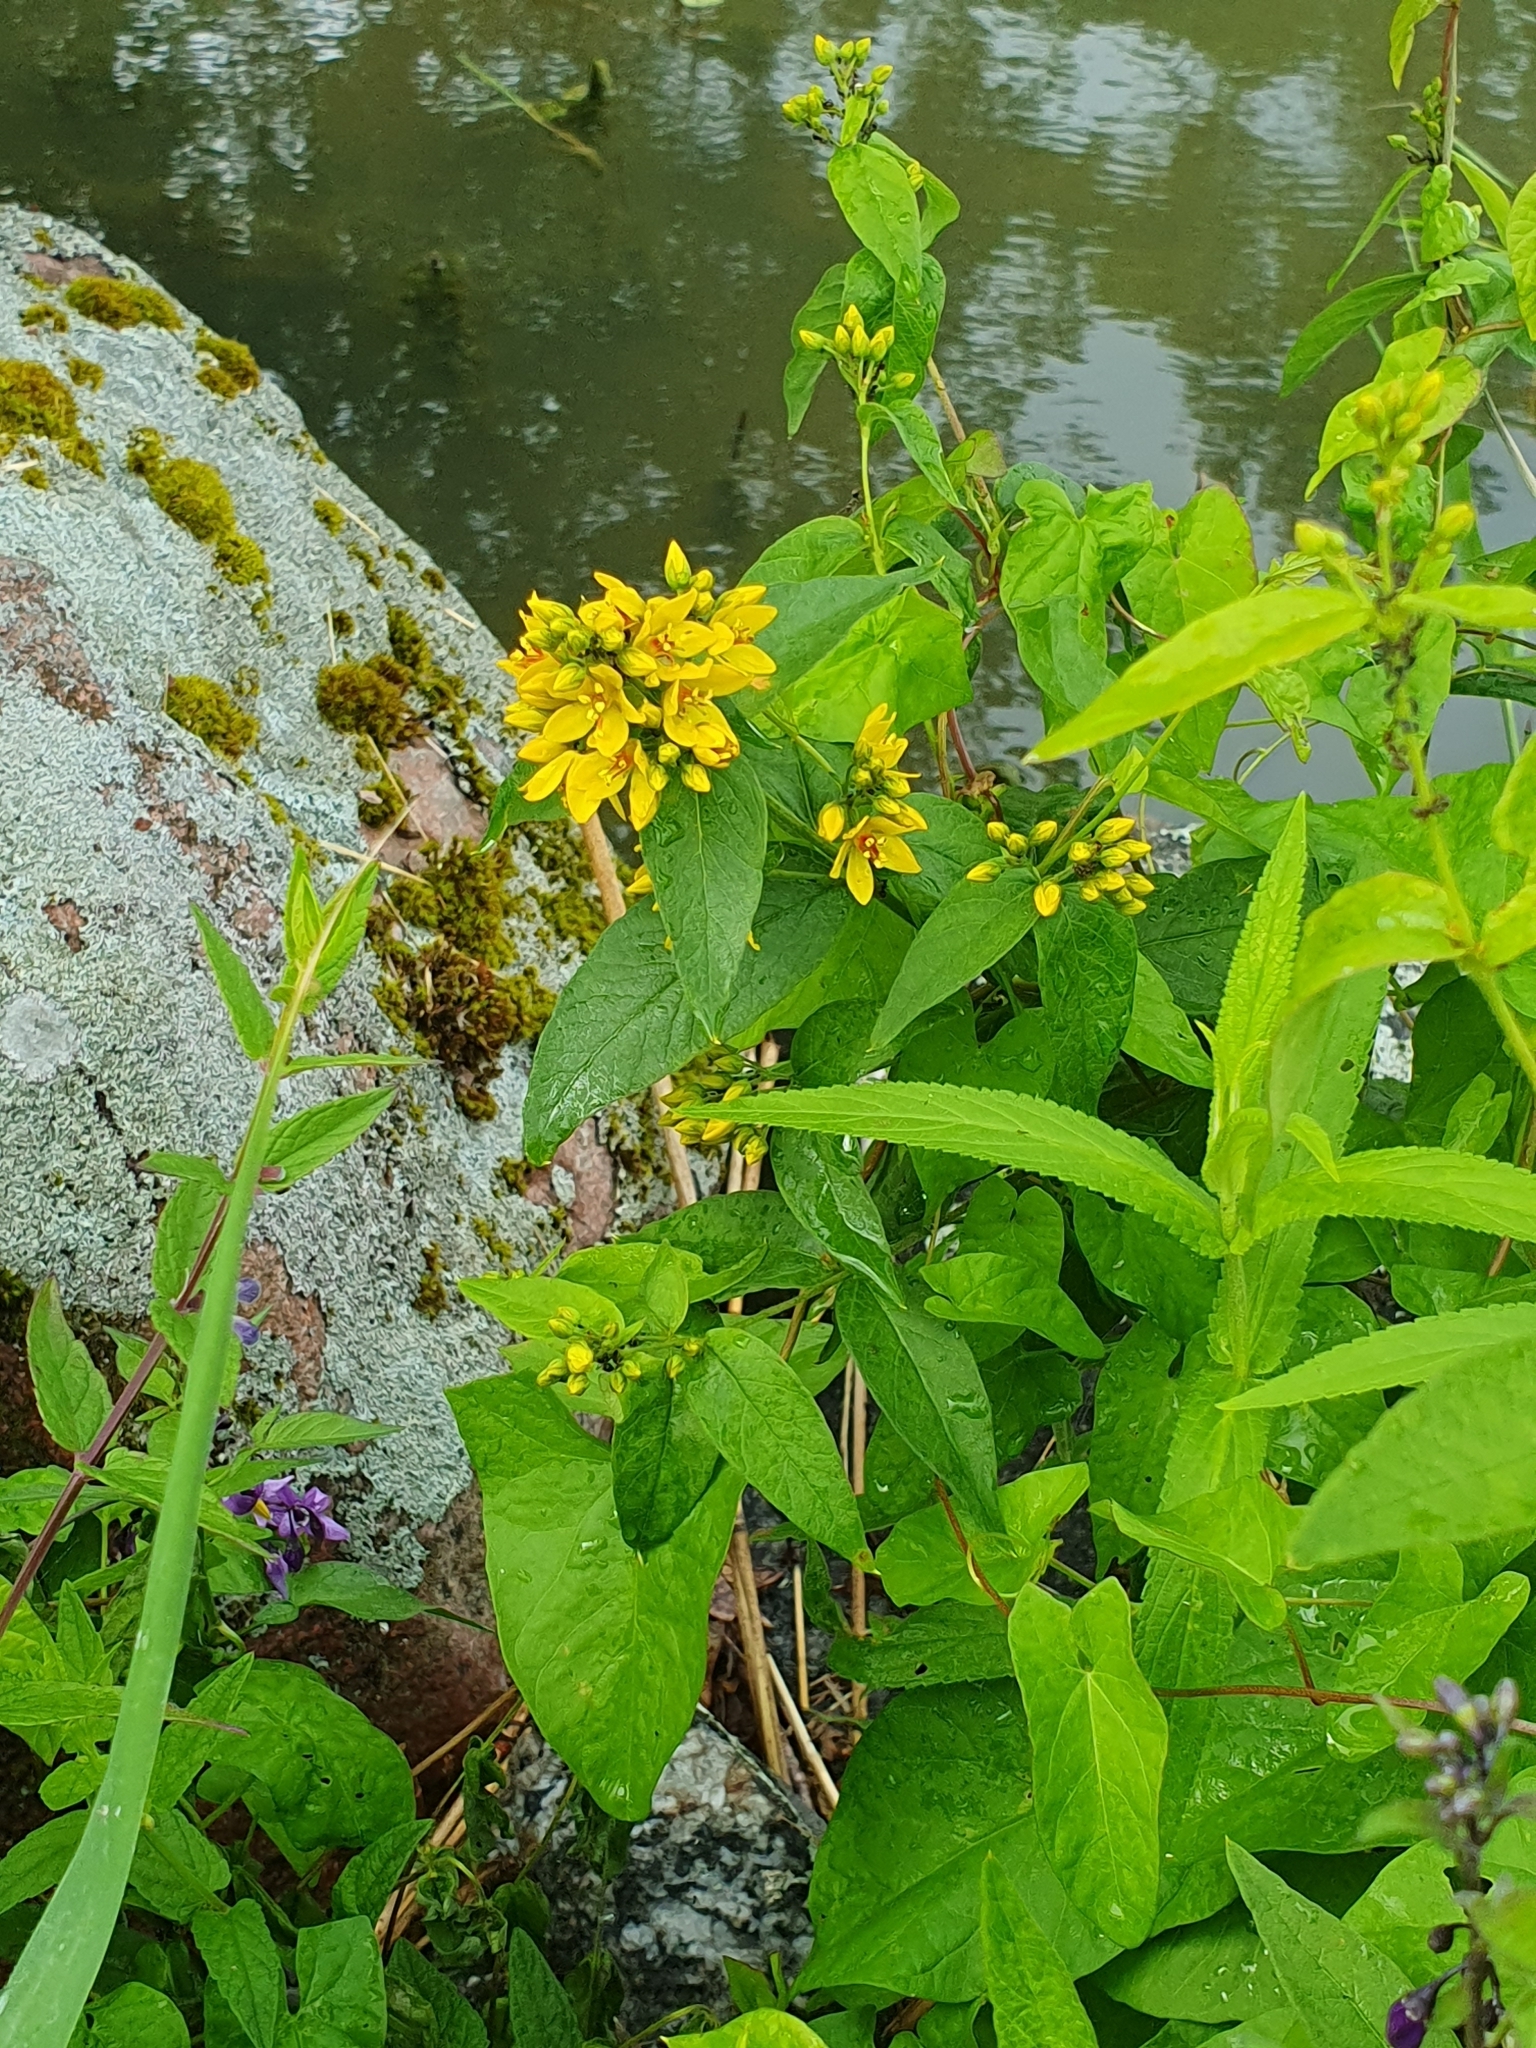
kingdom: Plantae
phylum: Tracheophyta
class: Magnoliopsida
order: Ericales
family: Primulaceae
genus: Lysimachia
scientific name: Lysimachia vulgaris
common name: Yellow loosestrife
